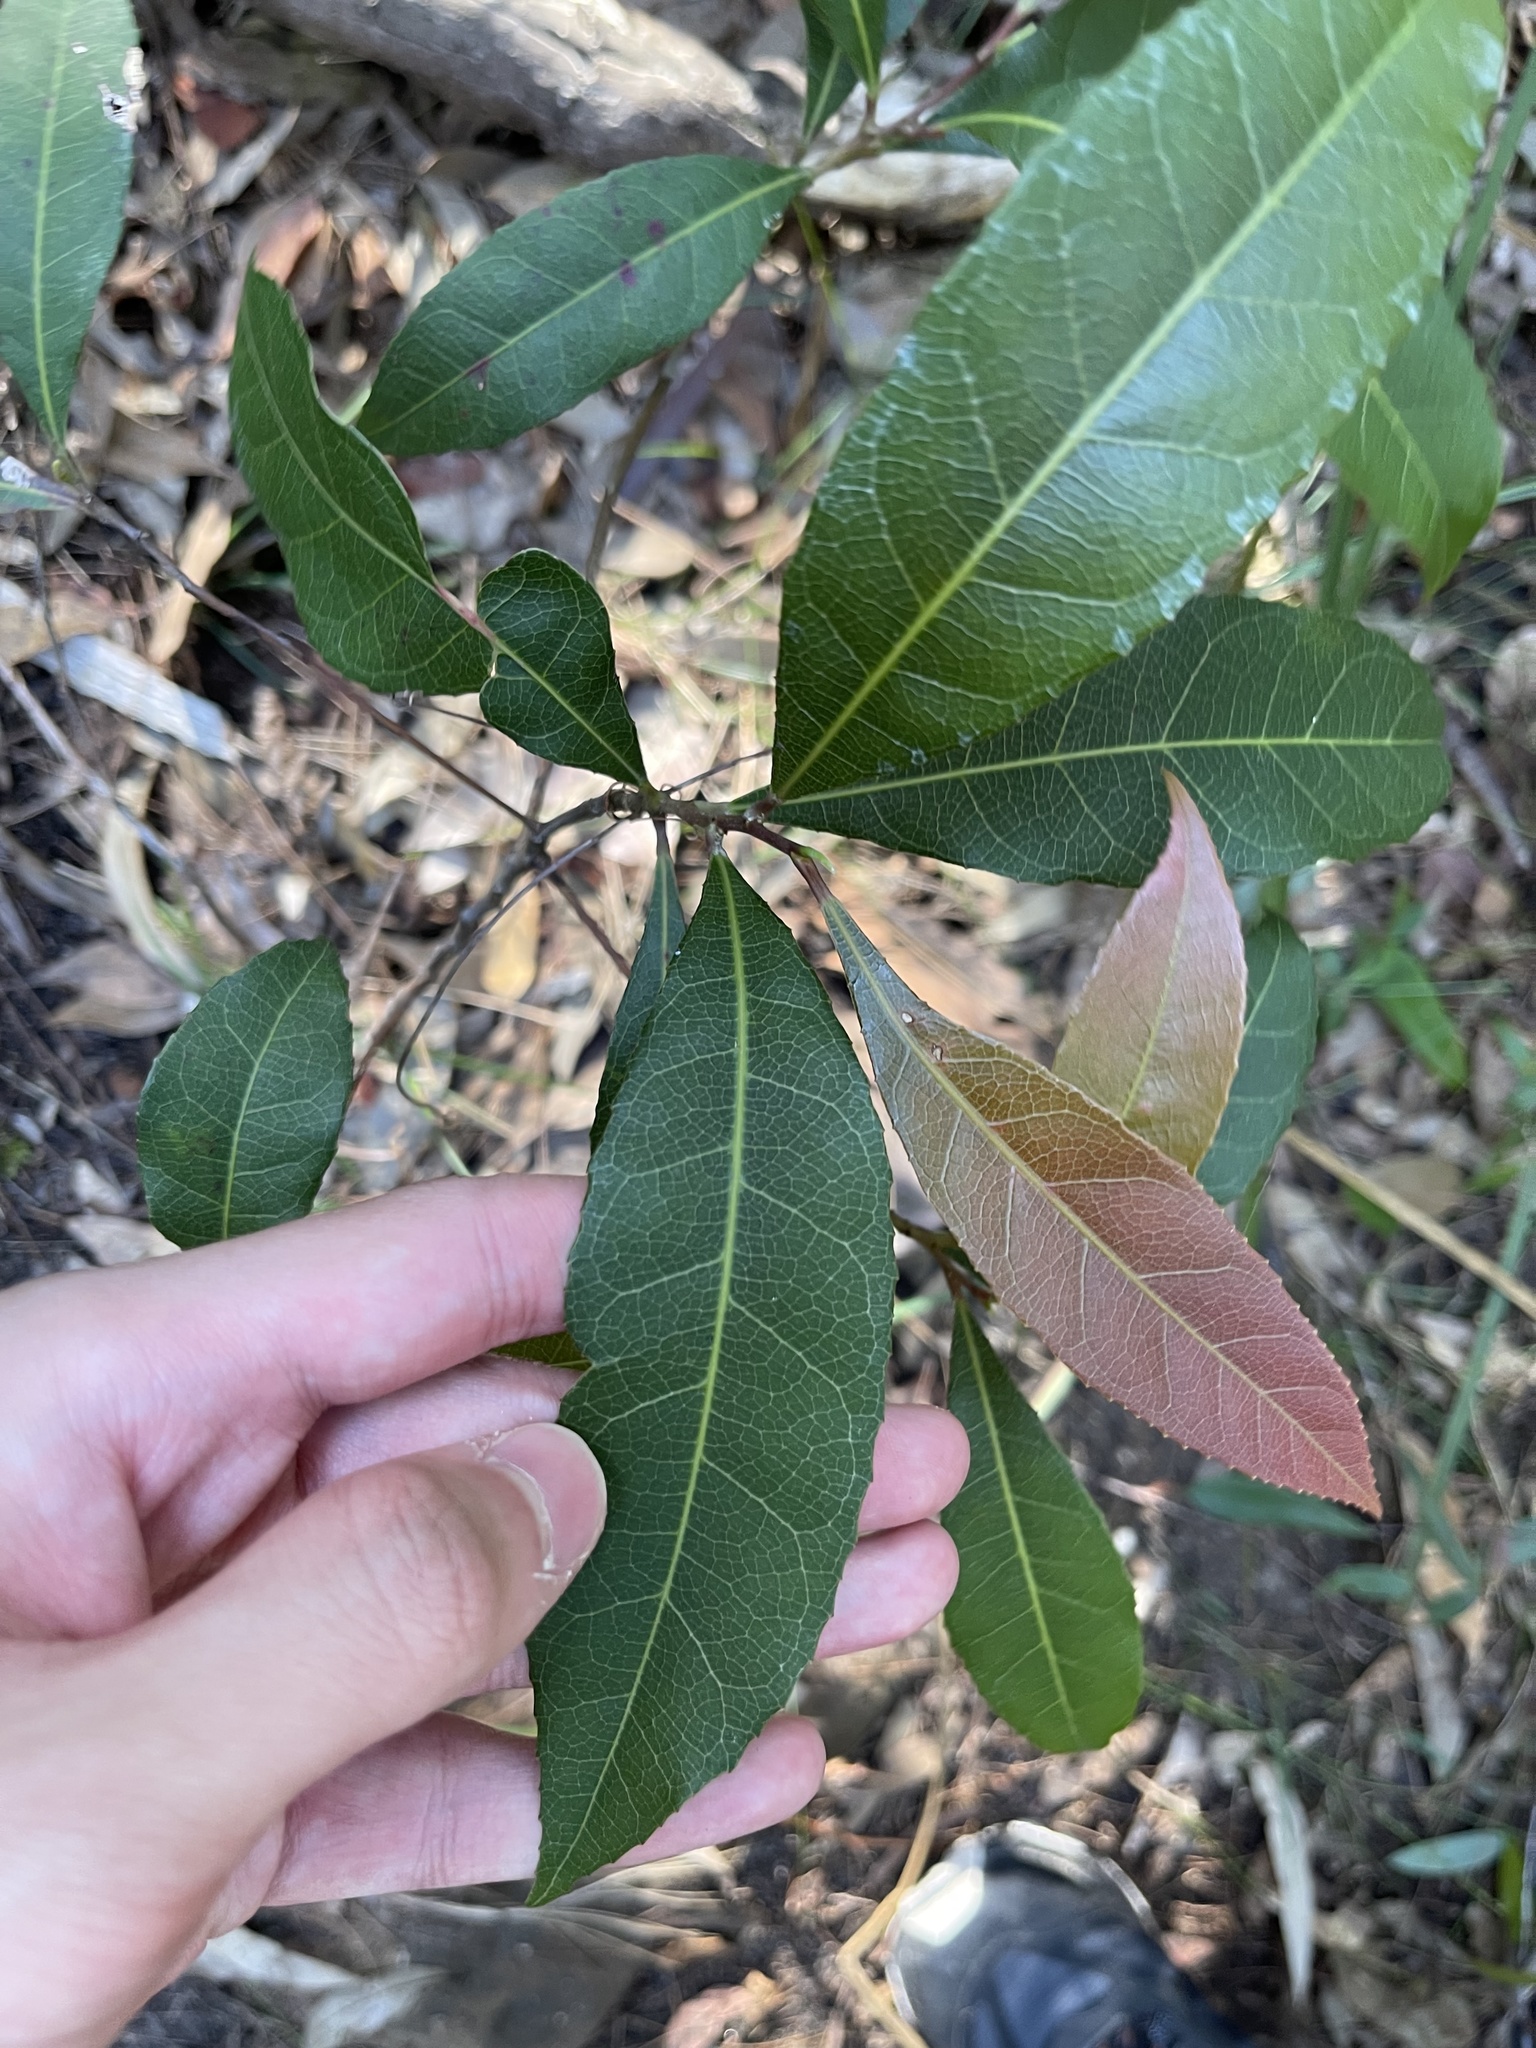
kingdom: Plantae
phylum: Tracheophyta
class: Magnoliopsida
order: Oxalidales
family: Elaeocarpaceae
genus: Elaeocarpus
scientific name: Elaeocarpus reticulatus
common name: Ash quandong
